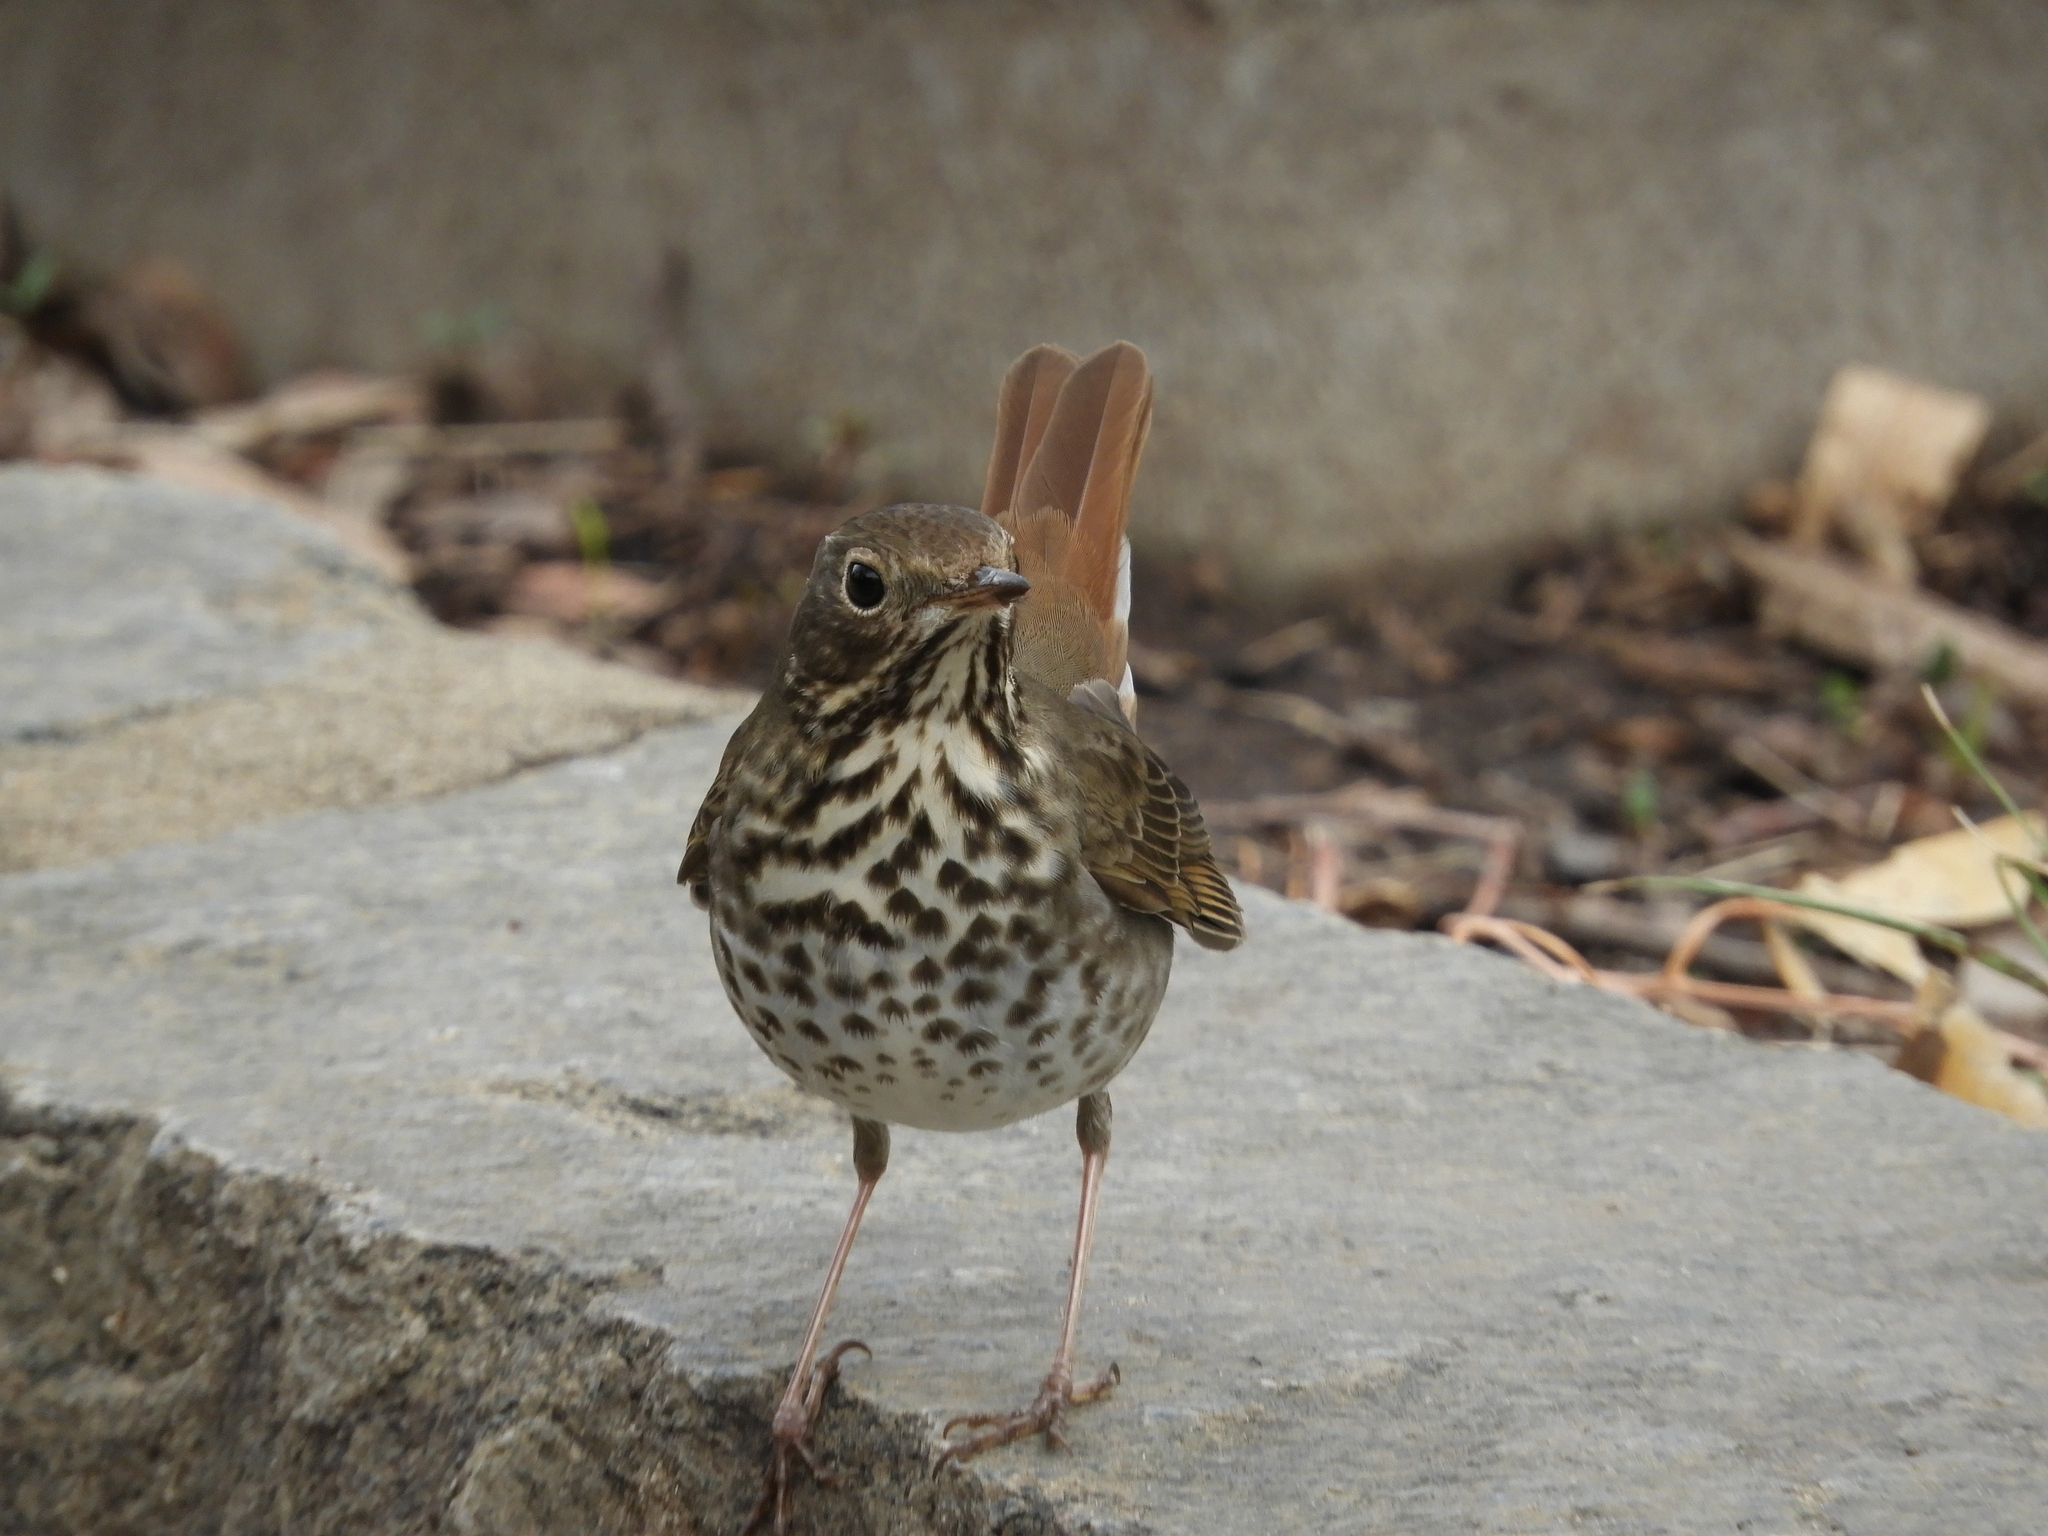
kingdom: Animalia
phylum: Chordata
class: Aves
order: Passeriformes
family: Turdidae
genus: Catharus
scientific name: Catharus guttatus
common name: Hermit thrush
